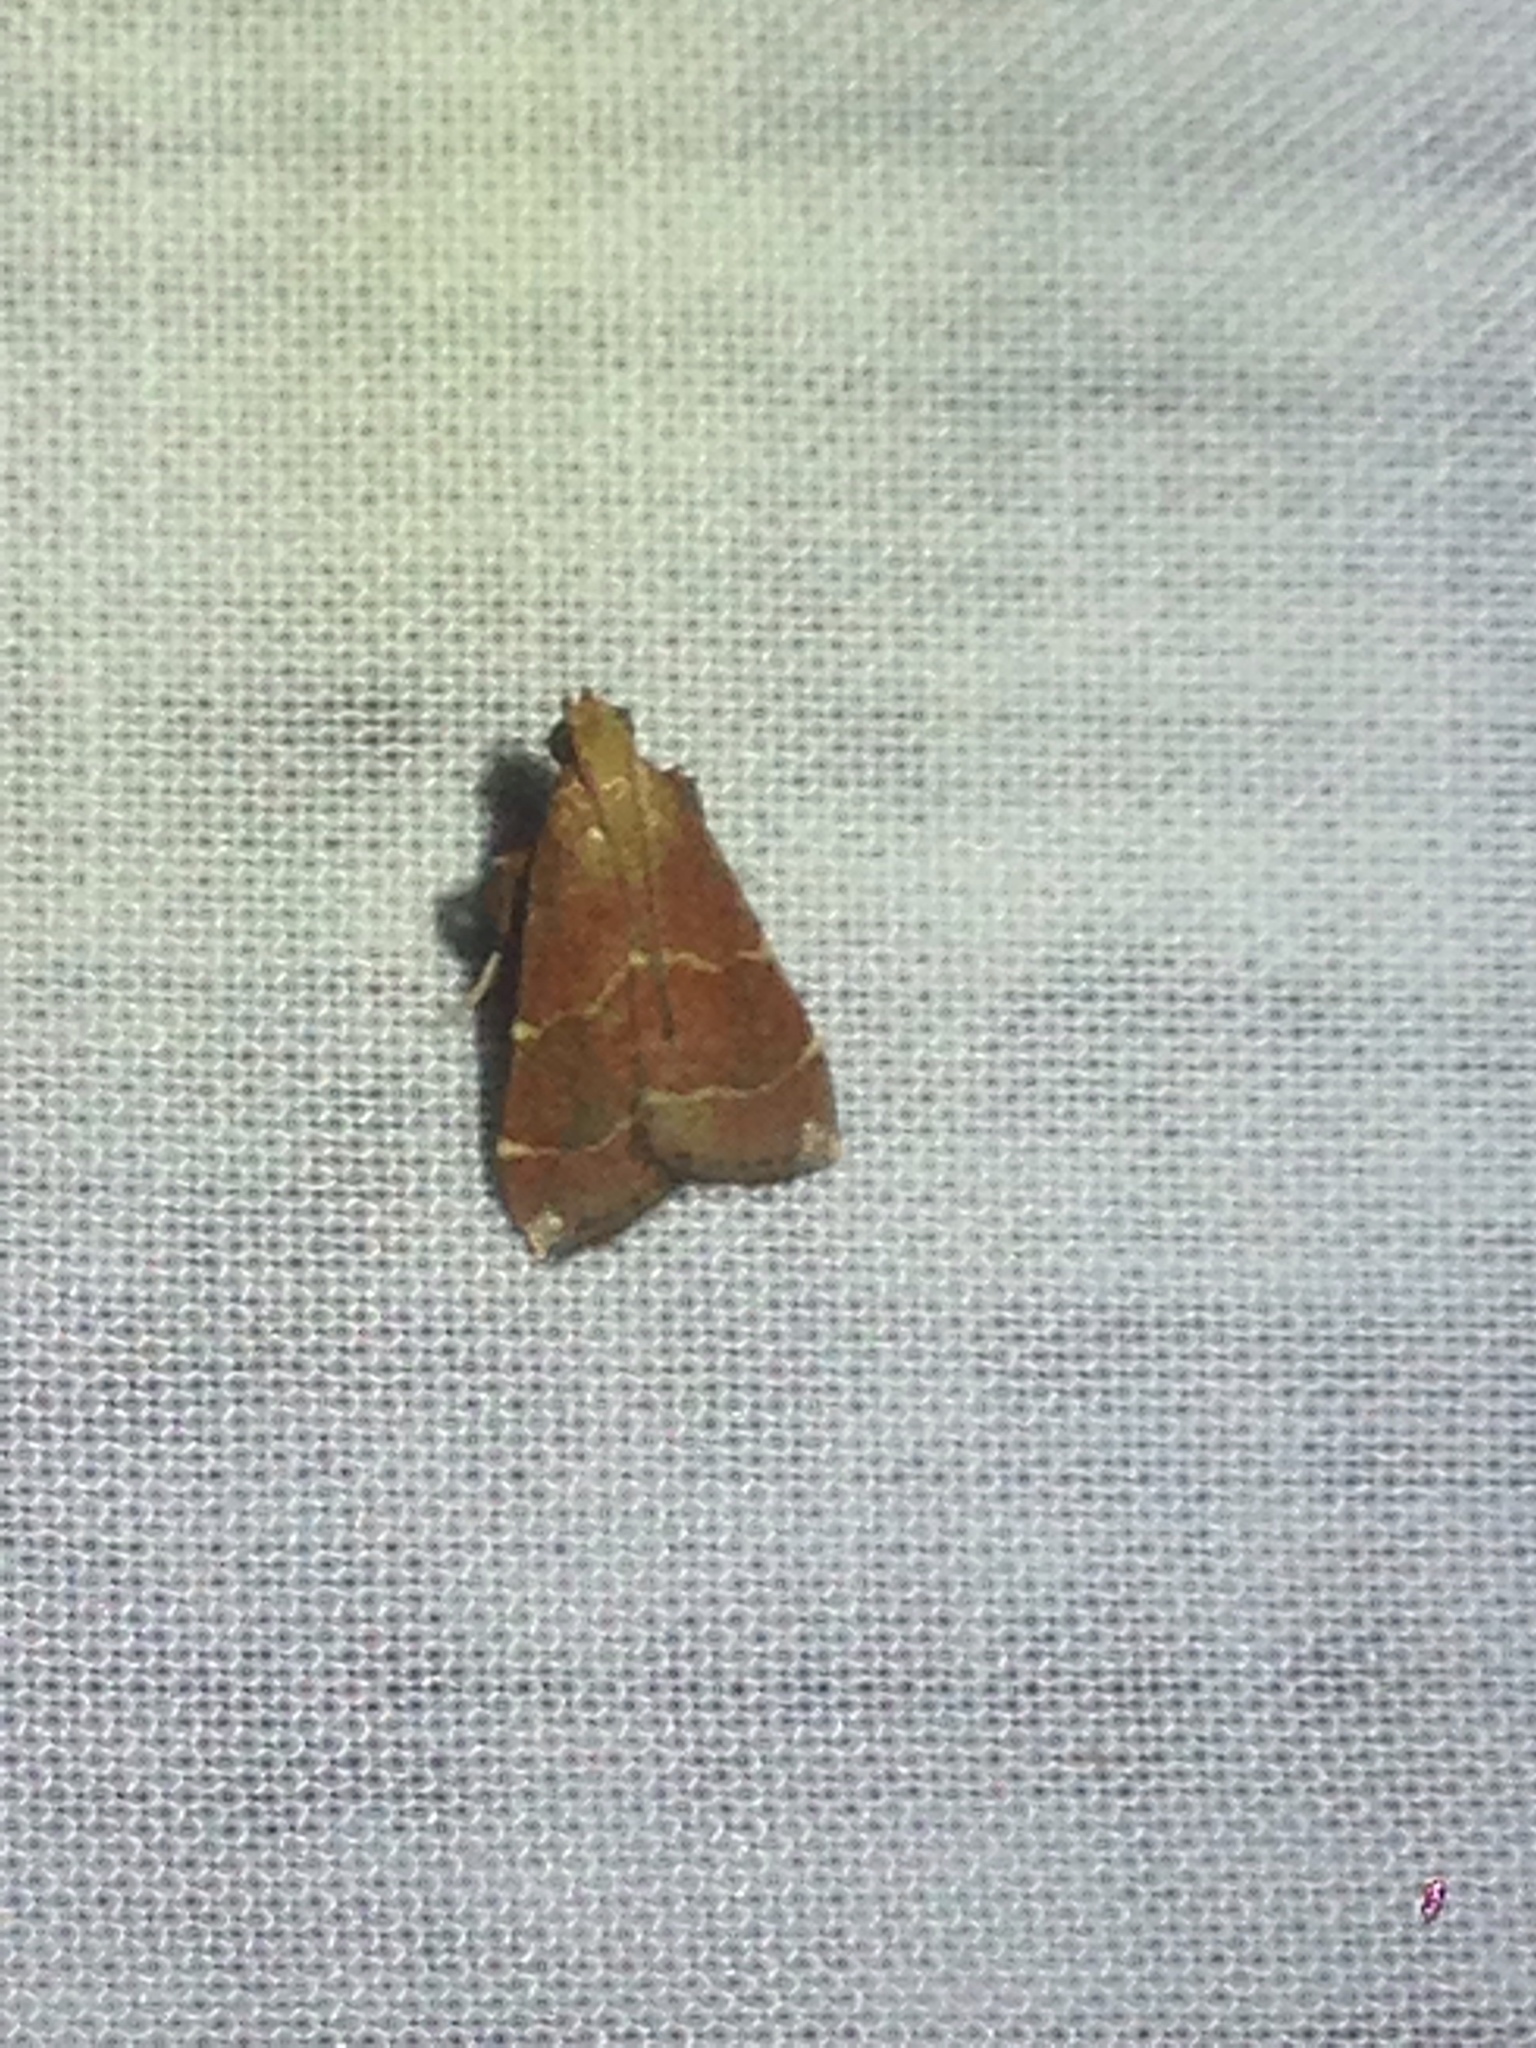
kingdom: Animalia
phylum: Arthropoda
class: Insecta
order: Lepidoptera
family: Pyralidae
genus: Arta
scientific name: Arta statalis
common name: Posturing arta moth
